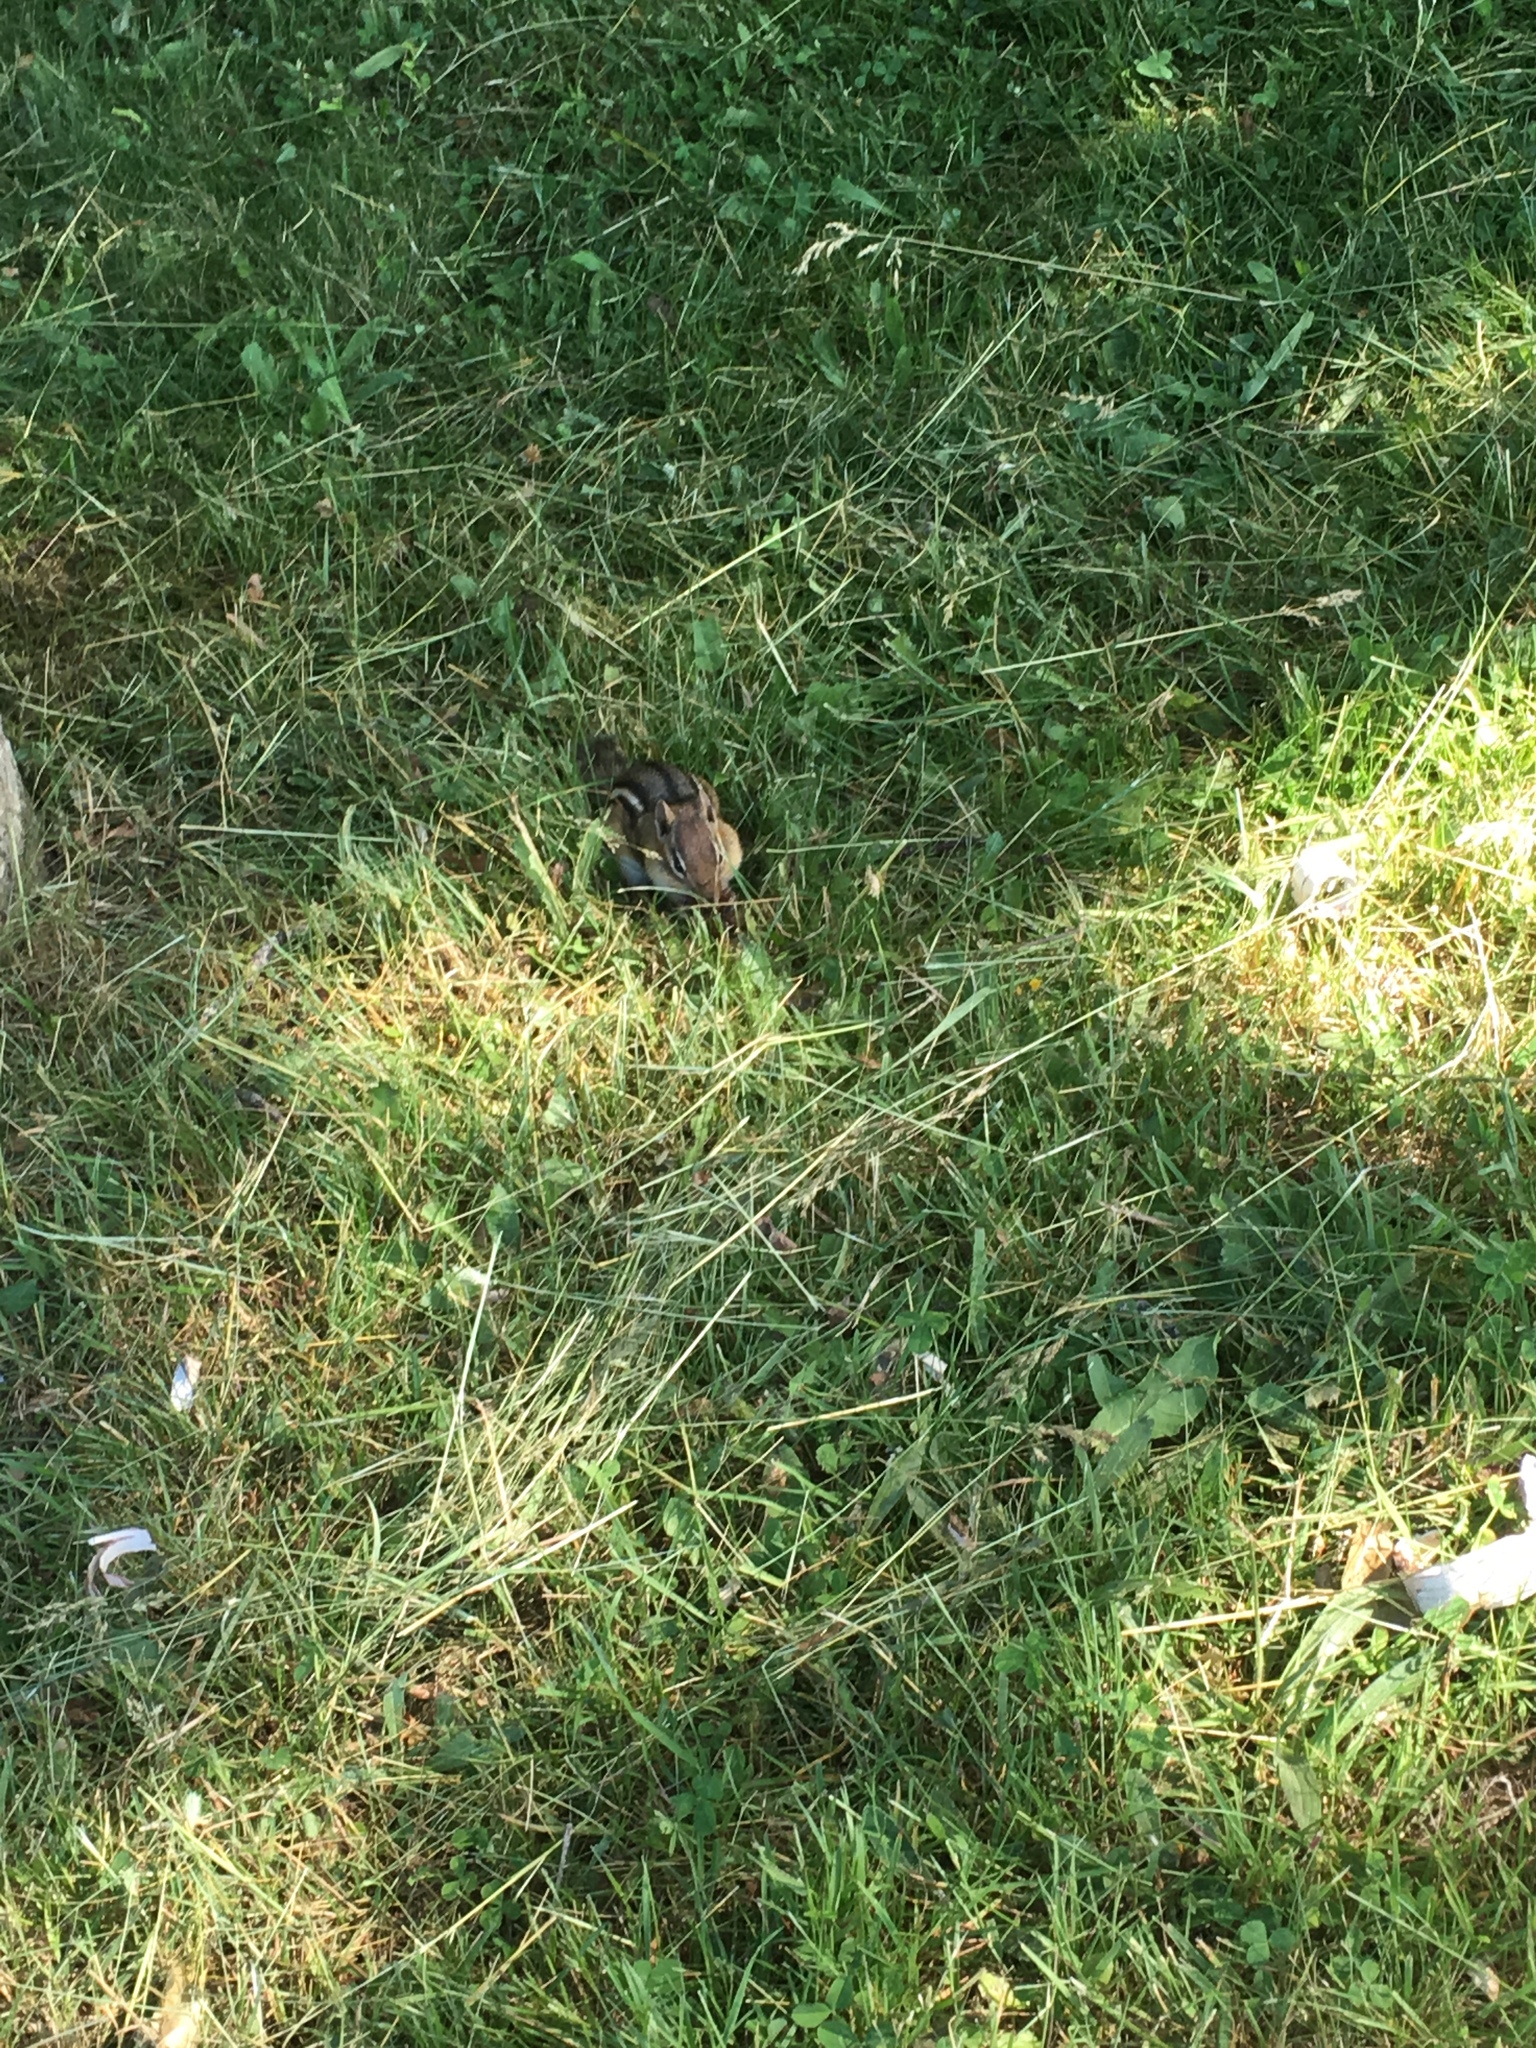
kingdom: Animalia
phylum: Chordata
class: Mammalia
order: Rodentia
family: Sciuridae
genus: Tamias
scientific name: Tamias striatus
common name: Eastern chipmunk
